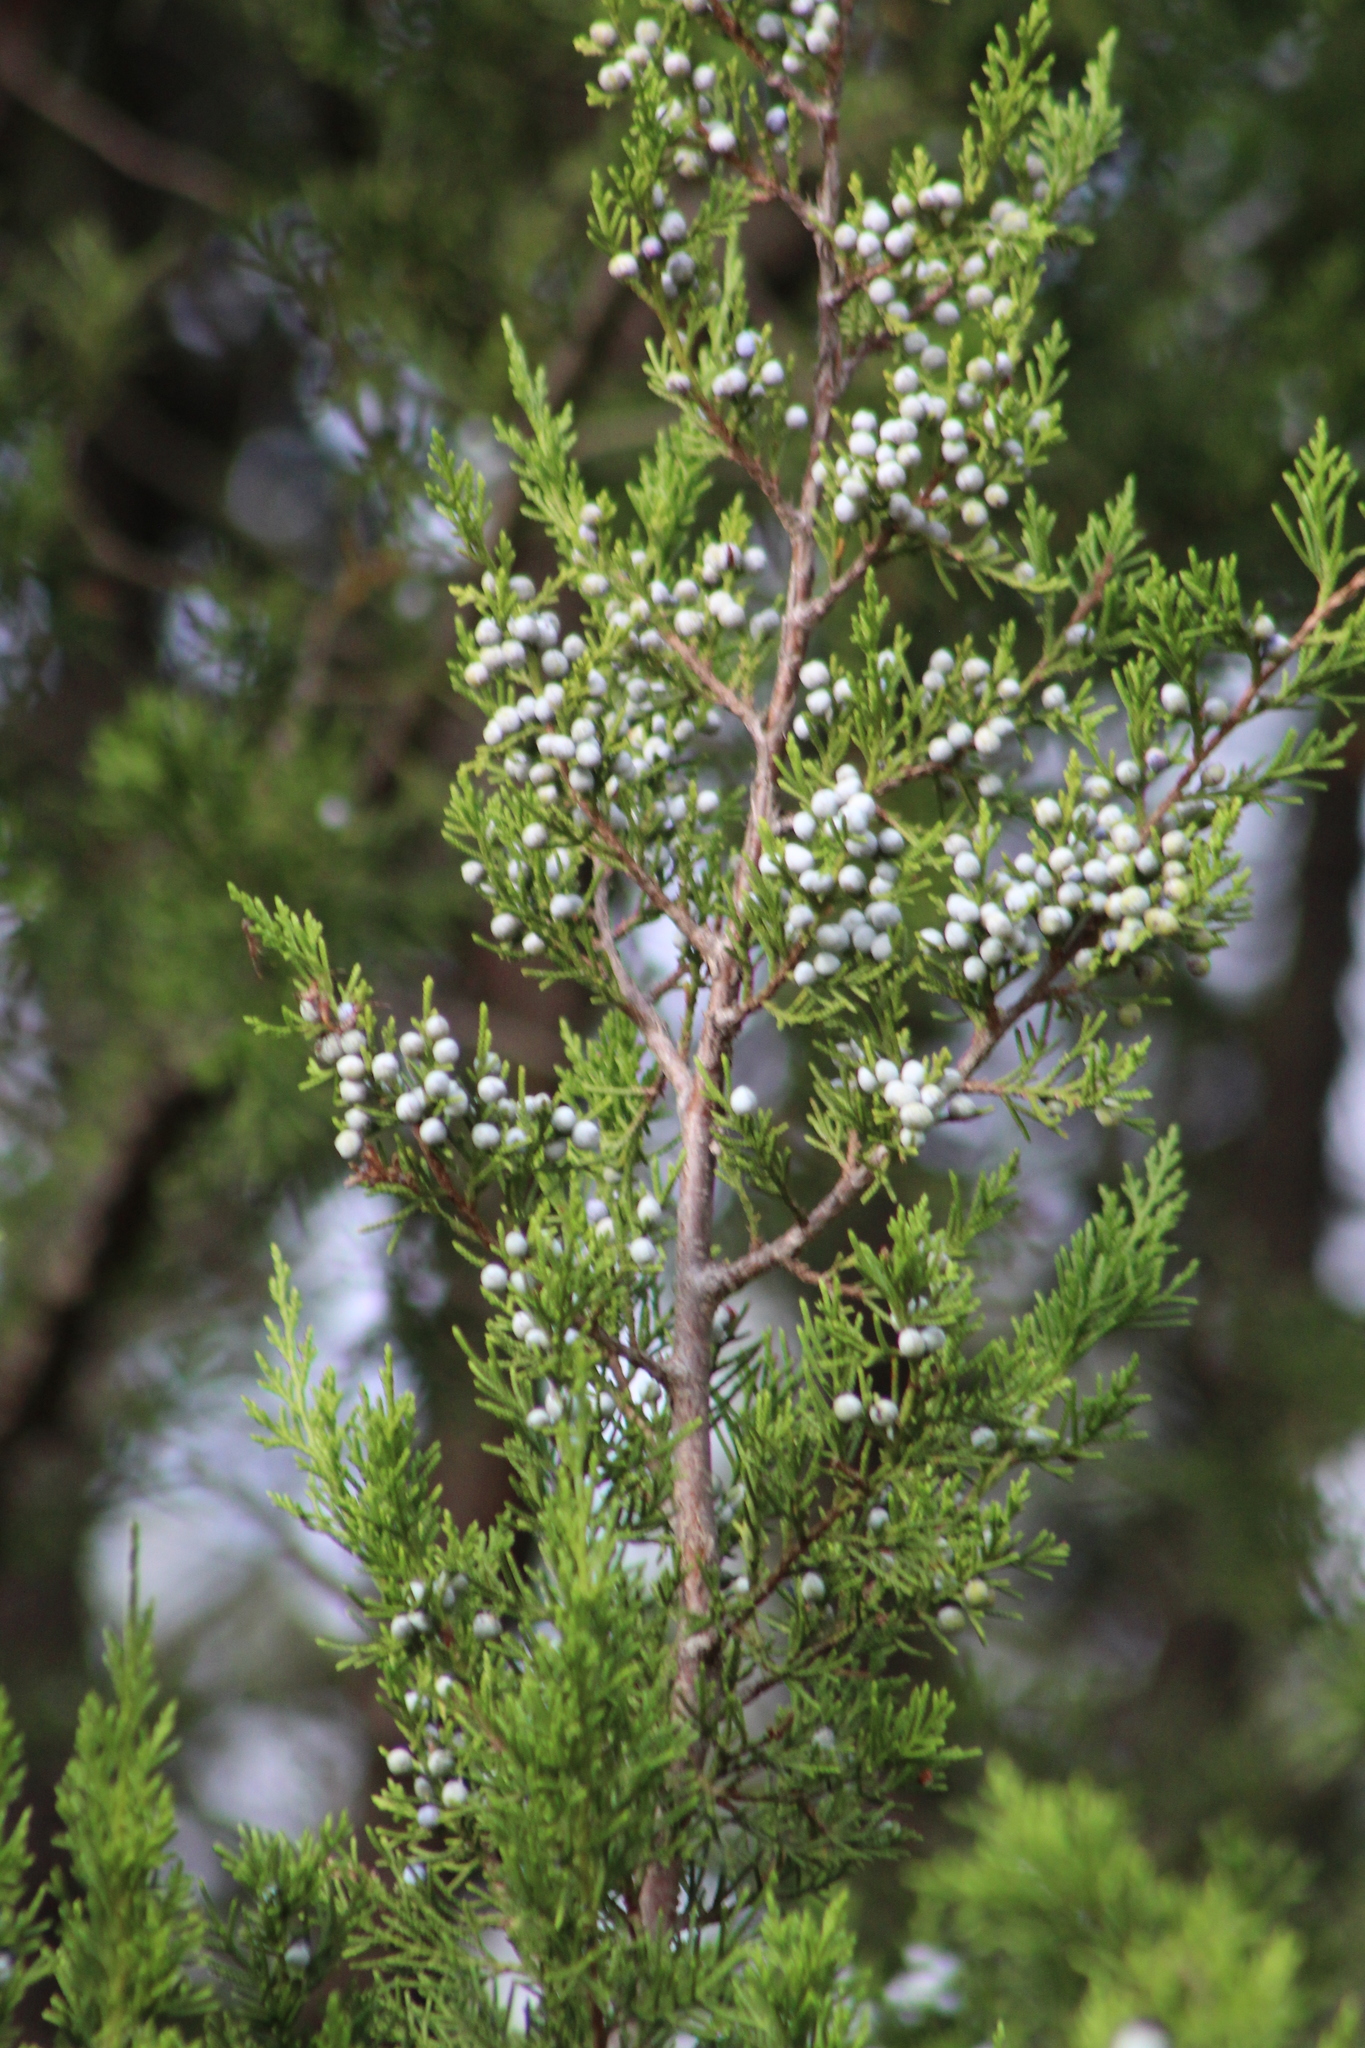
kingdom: Plantae
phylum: Tracheophyta
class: Pinopsida
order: Pinales
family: Cupressaceae
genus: Juniperus
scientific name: Juniperus virginiana
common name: Red juniper
